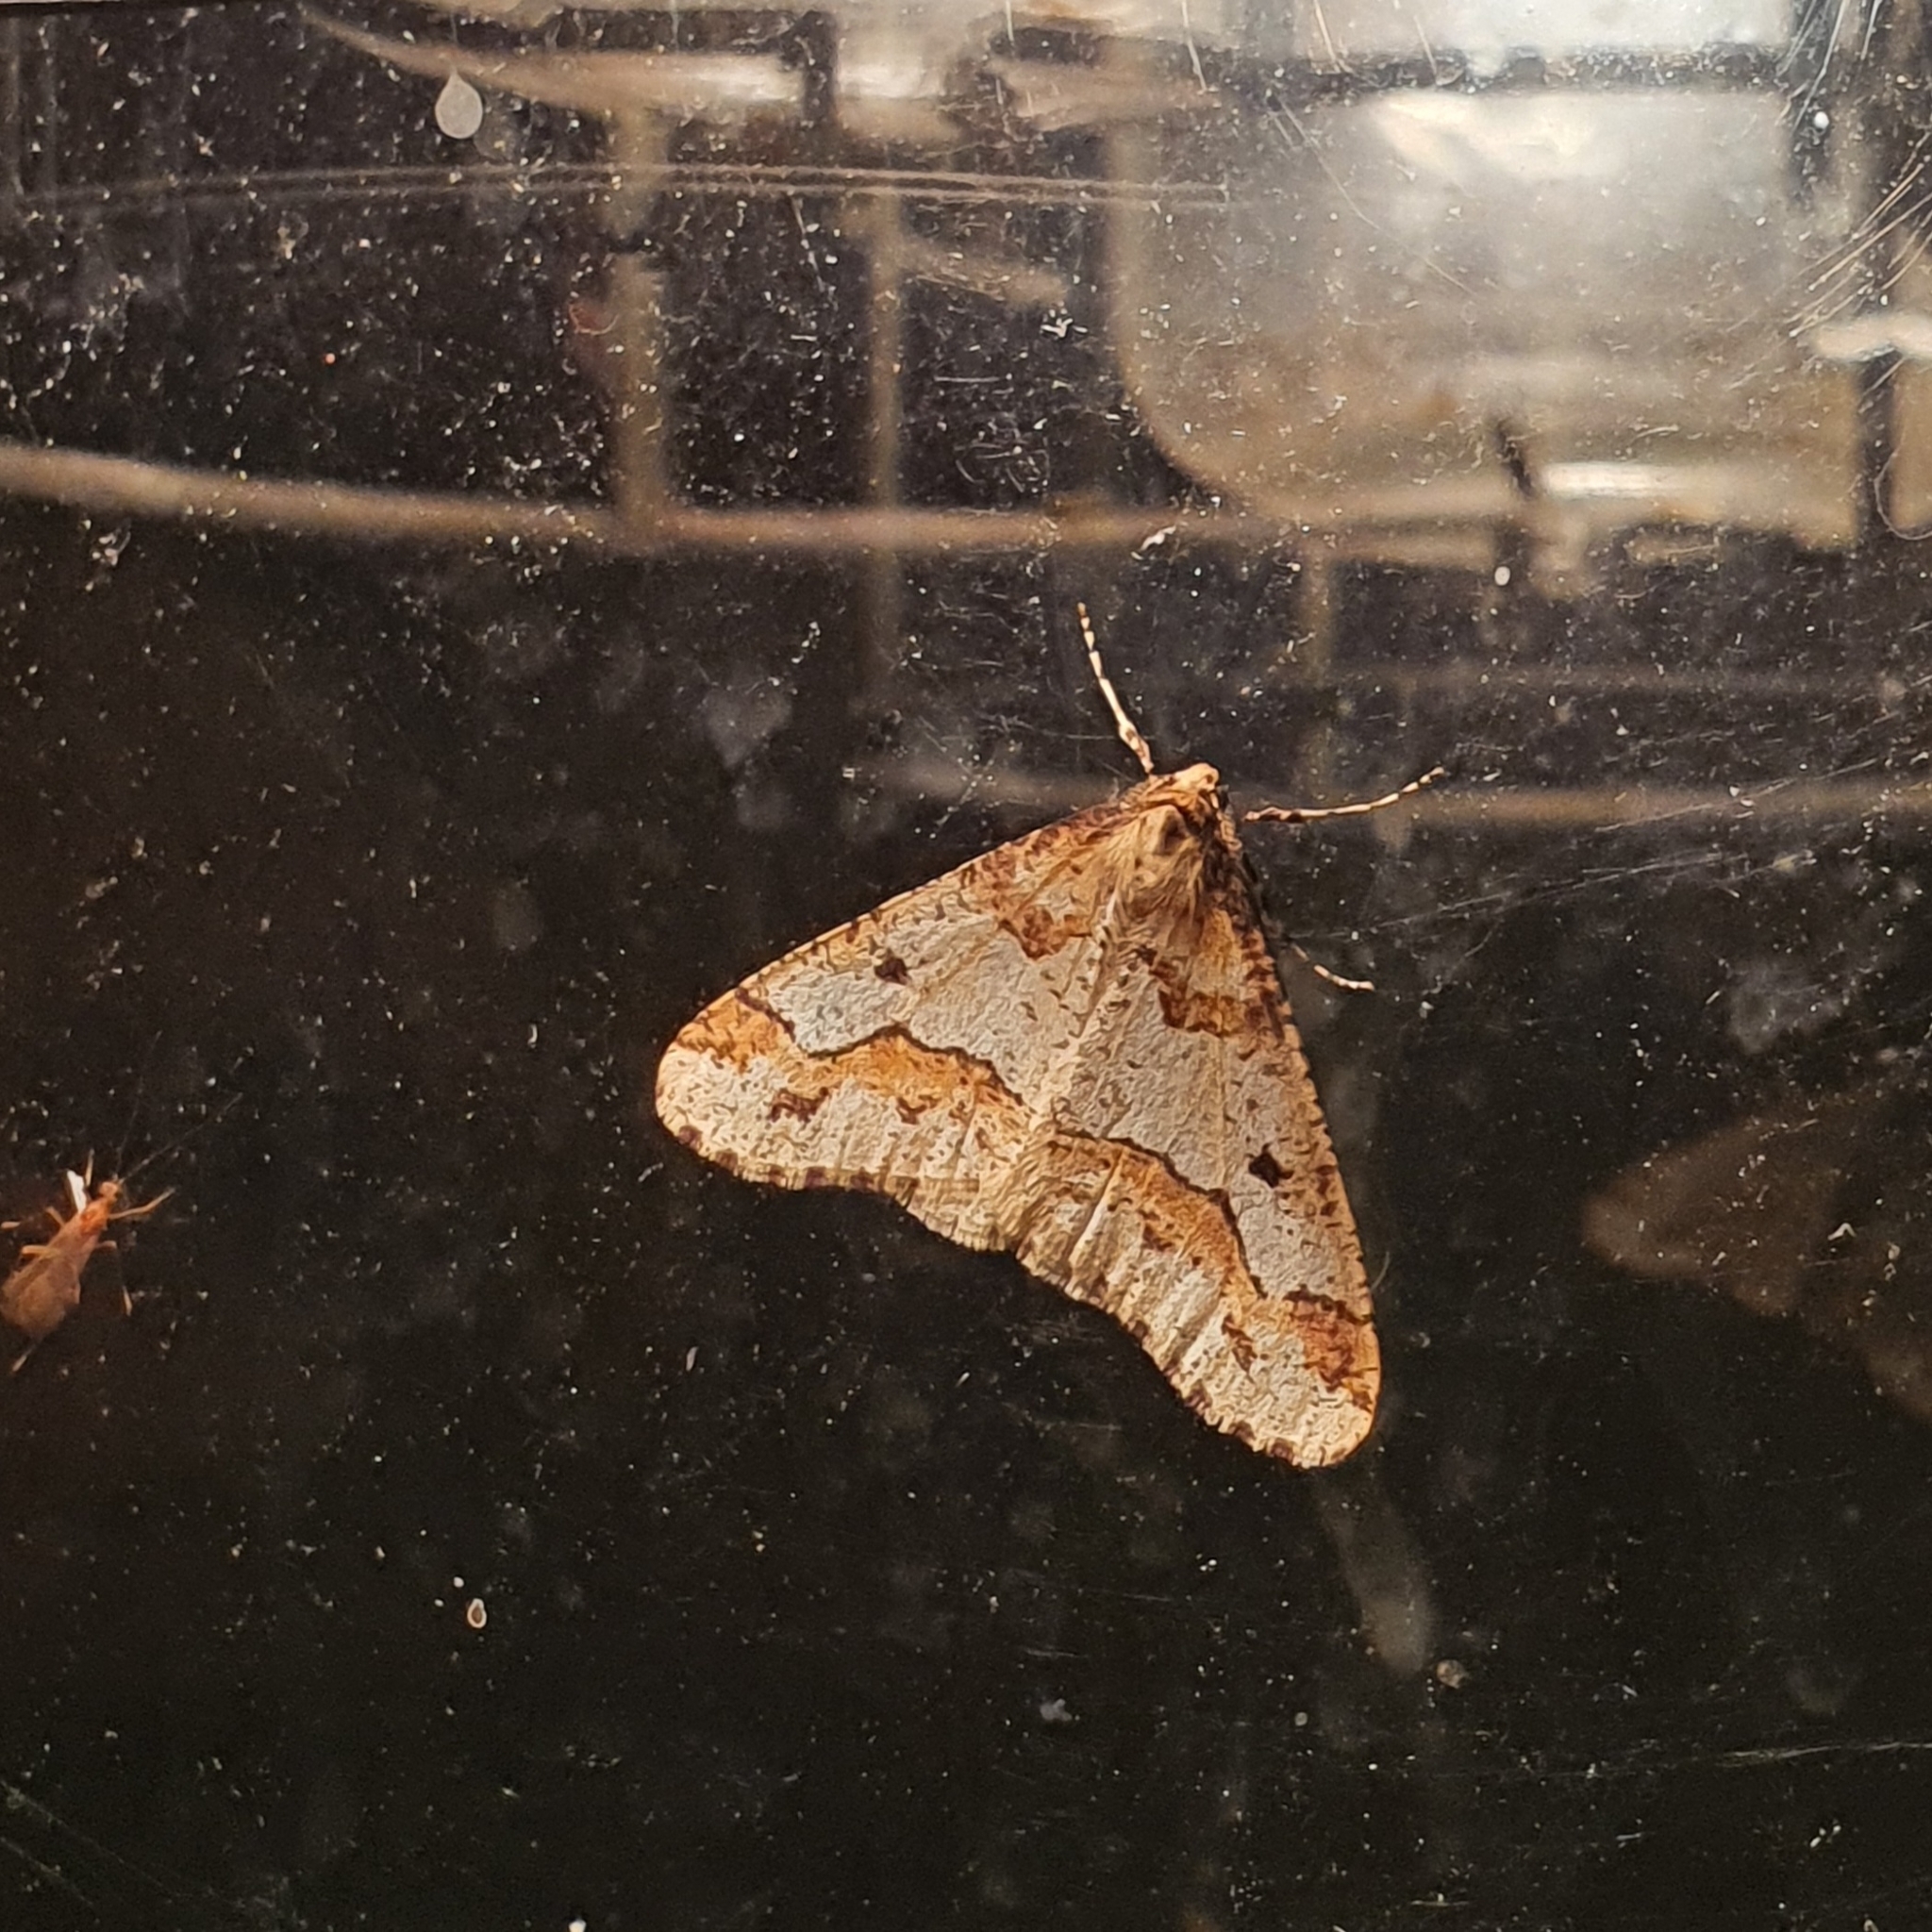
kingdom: Animalia
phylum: Arthropoda
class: Insecta
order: Lepidoptera
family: Geometridae
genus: Erannis
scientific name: Erannis defoliaria
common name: Mottled umber
